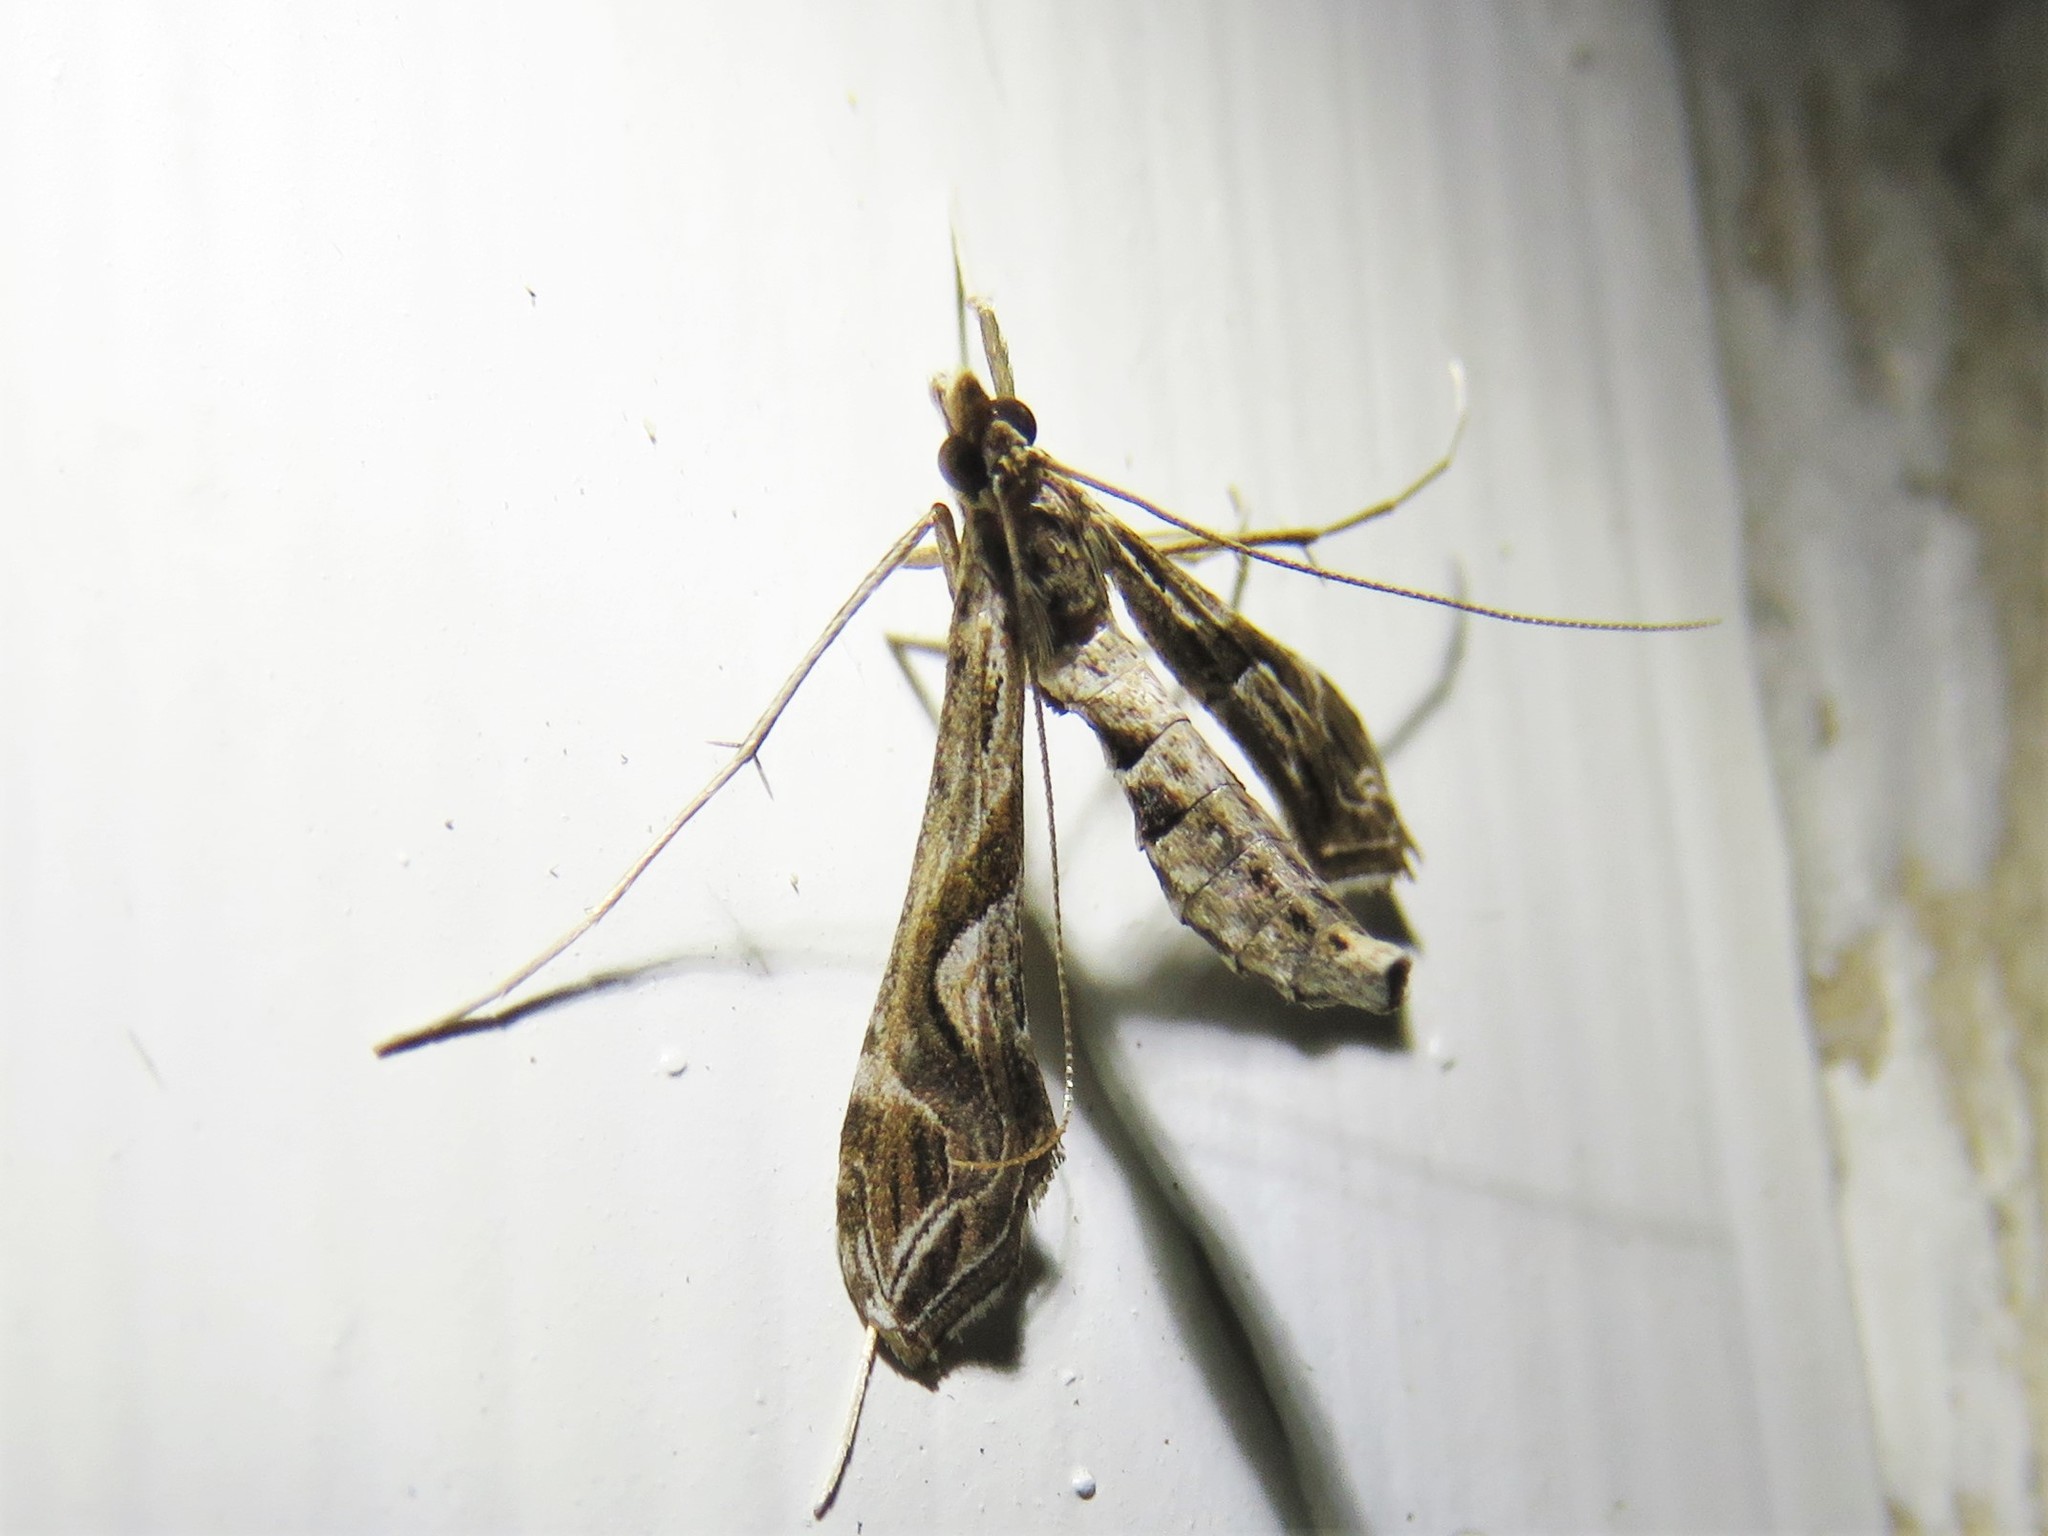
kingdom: Animalia
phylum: Arthropoda
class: Insecta
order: Lepidoptera
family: Crambidae
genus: Lineodes
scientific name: Lineodes integra
